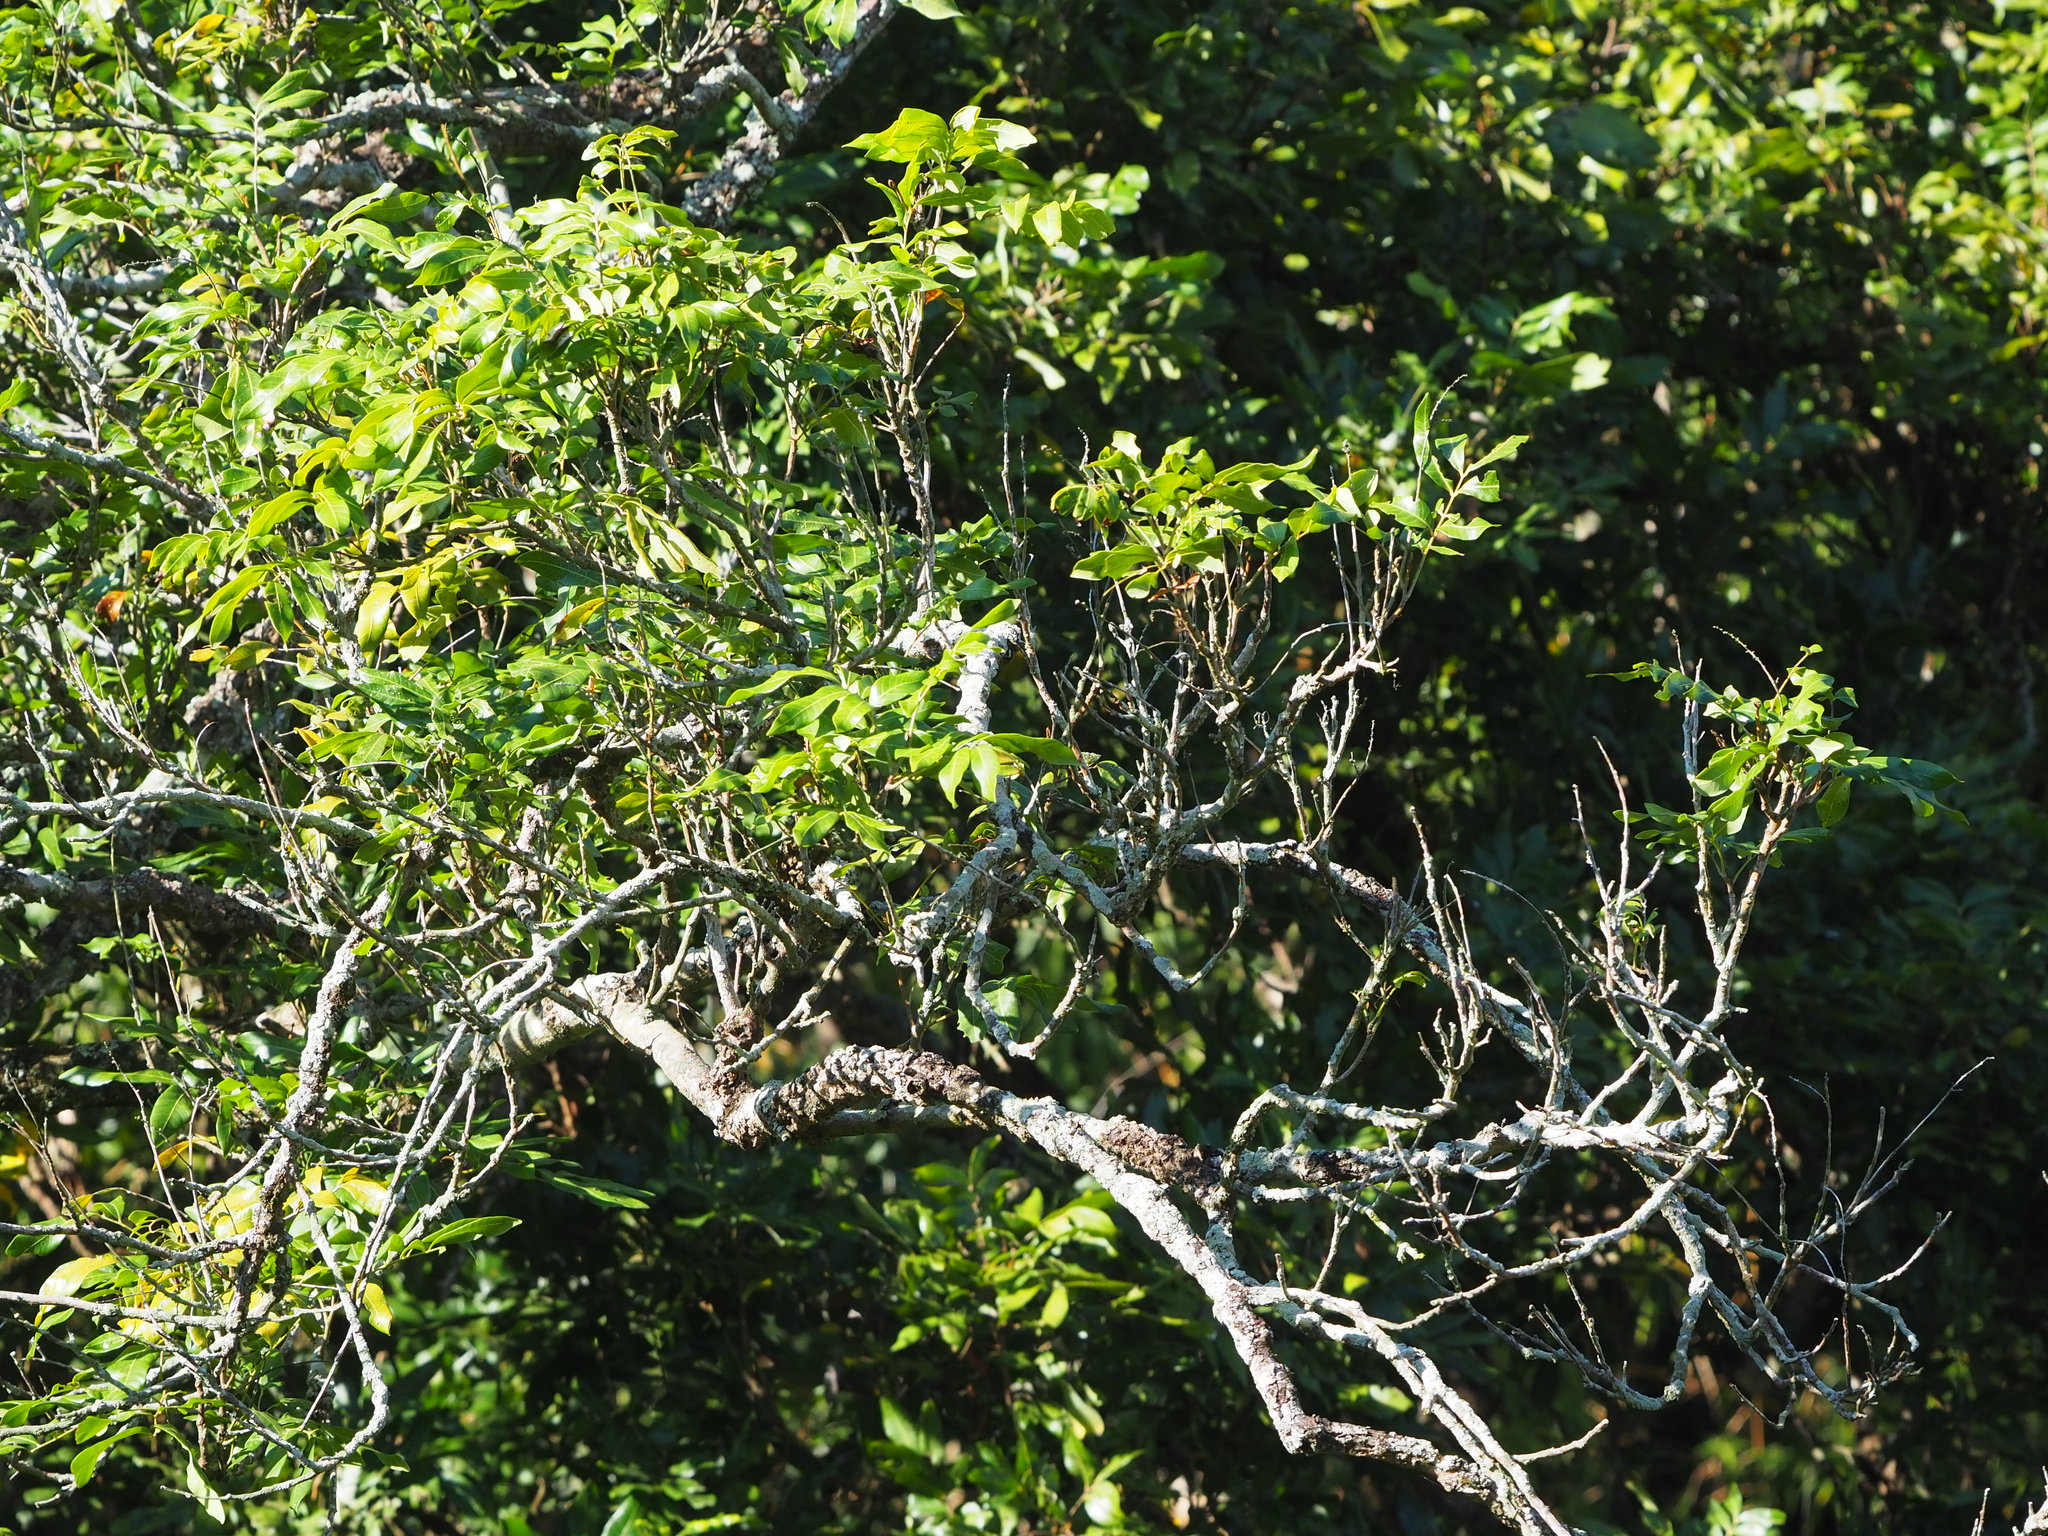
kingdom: Plantae
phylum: Tracheophyta
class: Magnoliopsida
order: Sapindales
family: Sapindaceae
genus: Dimocarpus
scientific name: Dimocarpus longan
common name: Longan
